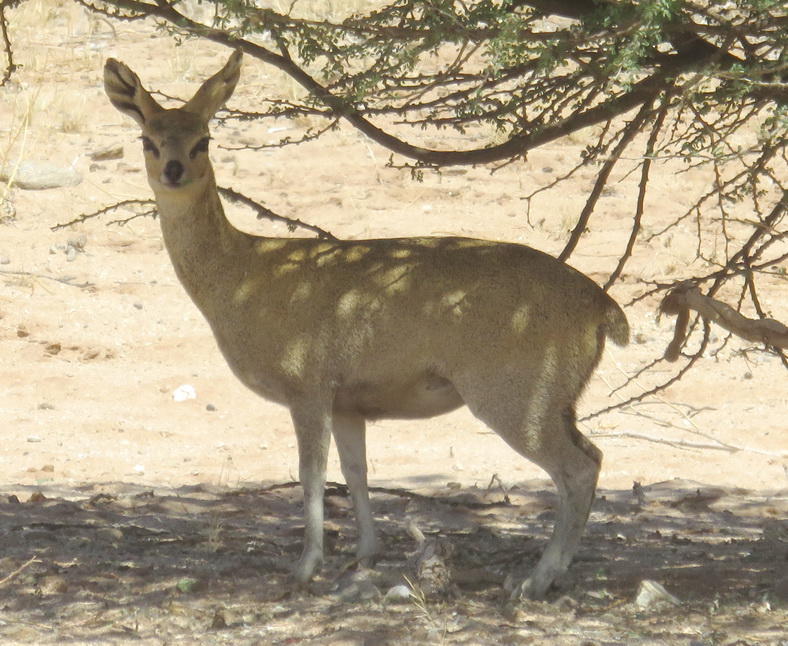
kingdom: Animalia
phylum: Chordata
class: Mammalia
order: Artiodactyla
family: Bovidae
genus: Oreotragus
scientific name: Oreotragus oreotragus
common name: Klipspringer
